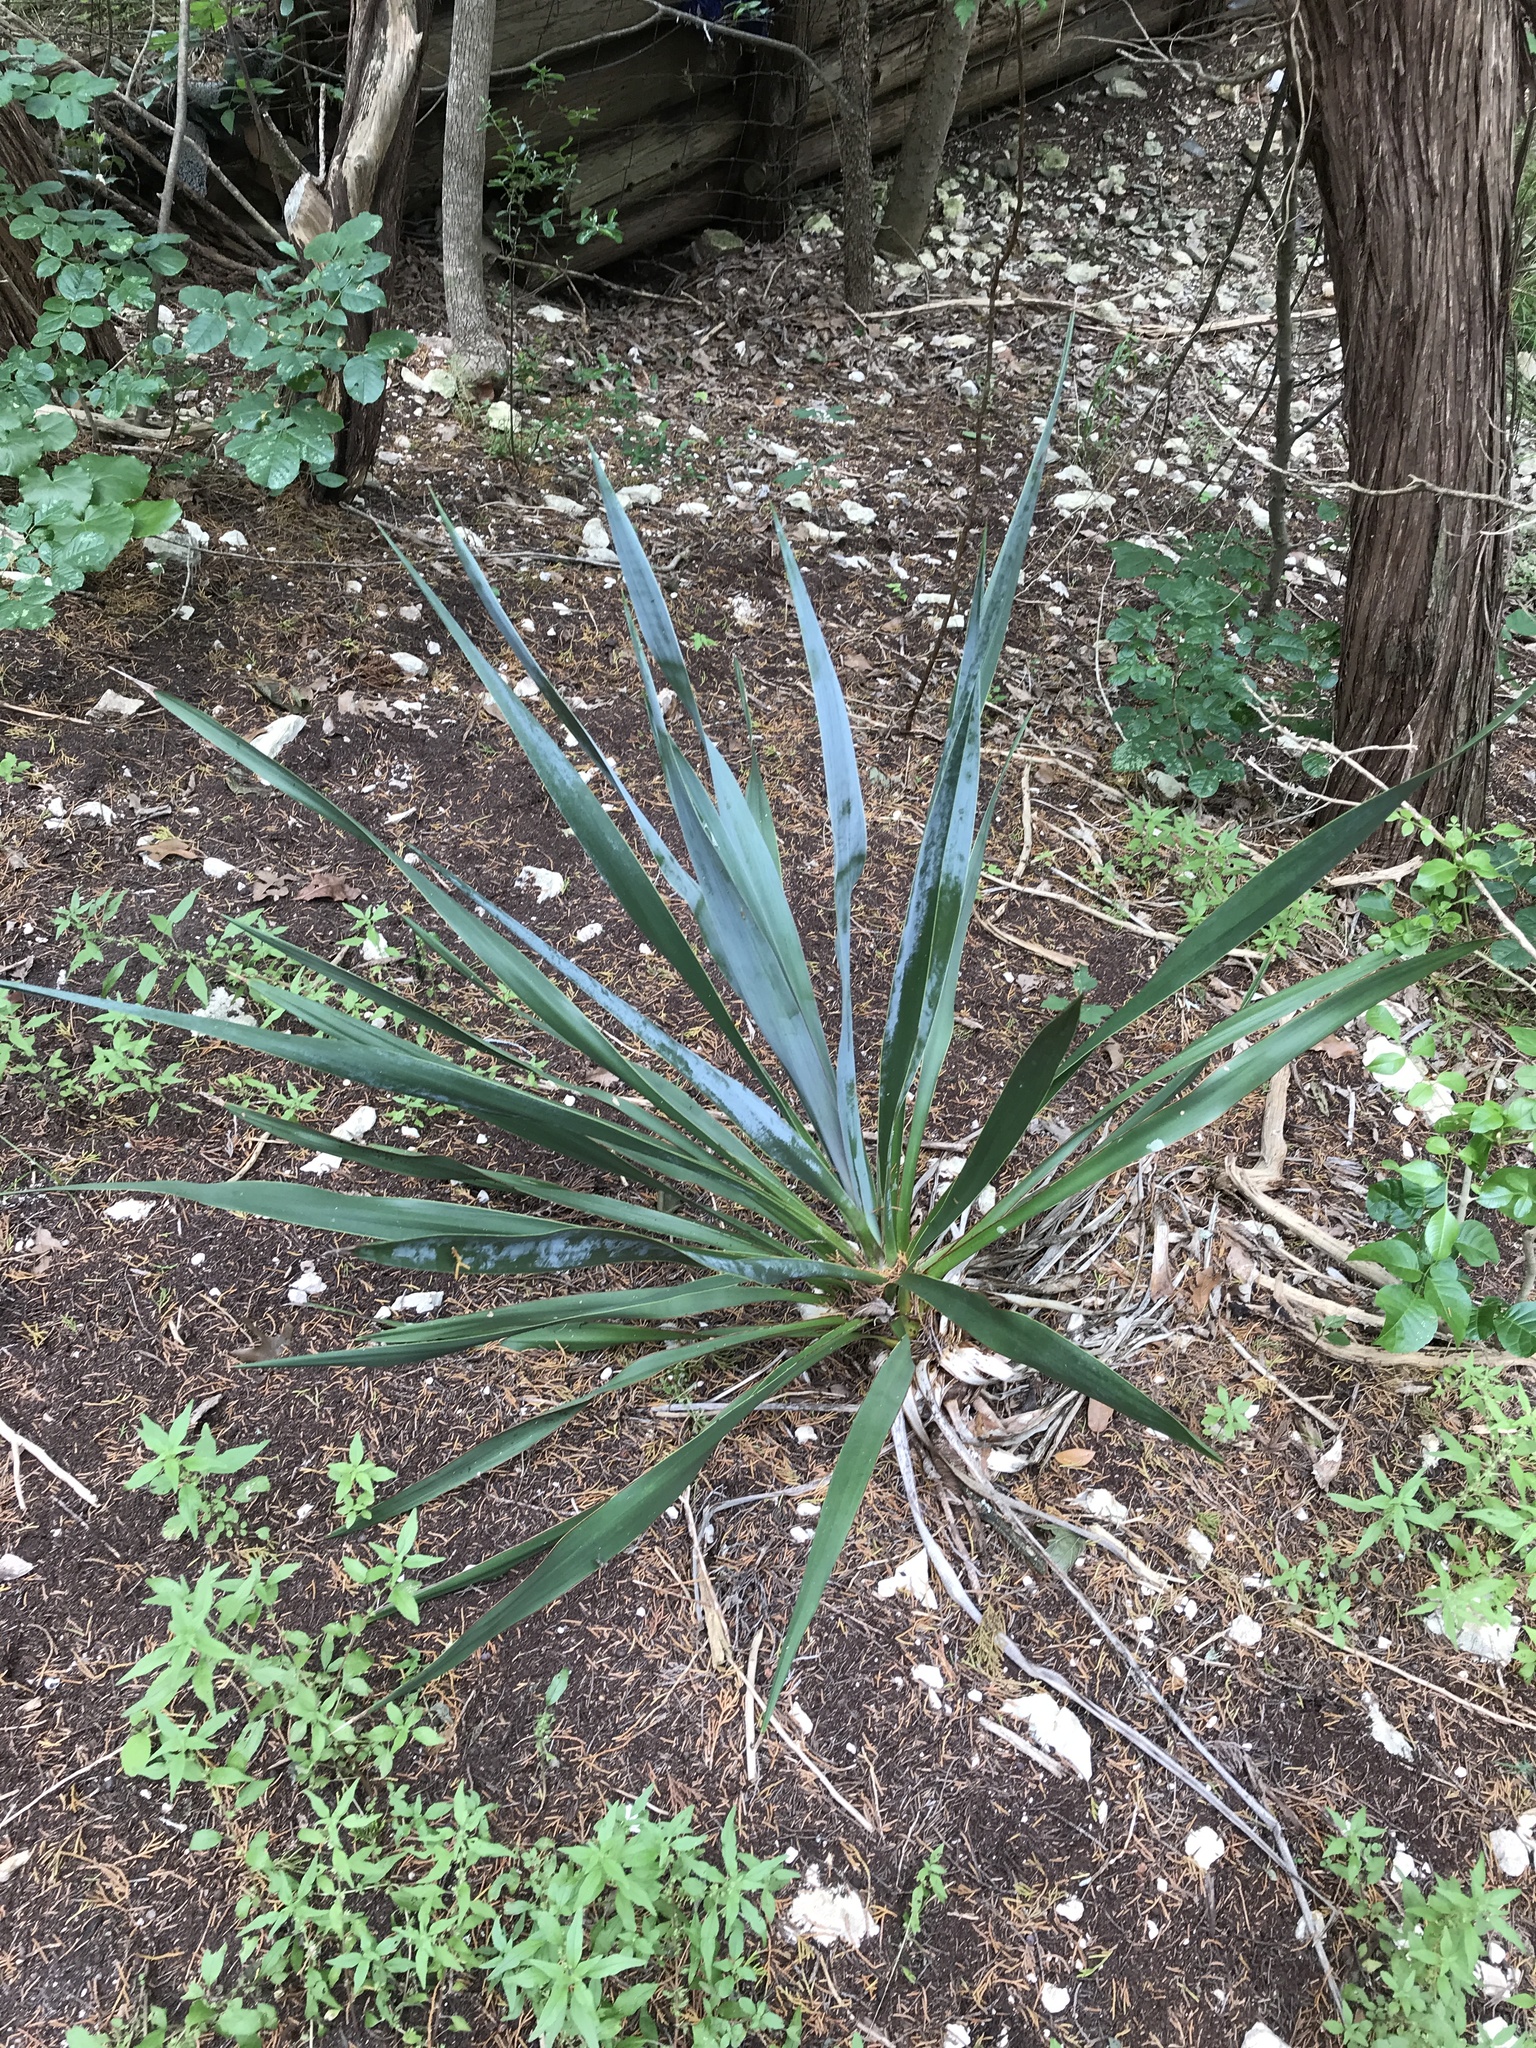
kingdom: Plantae
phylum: Tracheophyta
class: Liliopsida
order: Asparagales
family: Asparagaceae
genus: Yucca
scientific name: Yucca rupicola
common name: Twisted-leaf spanish-dagger
